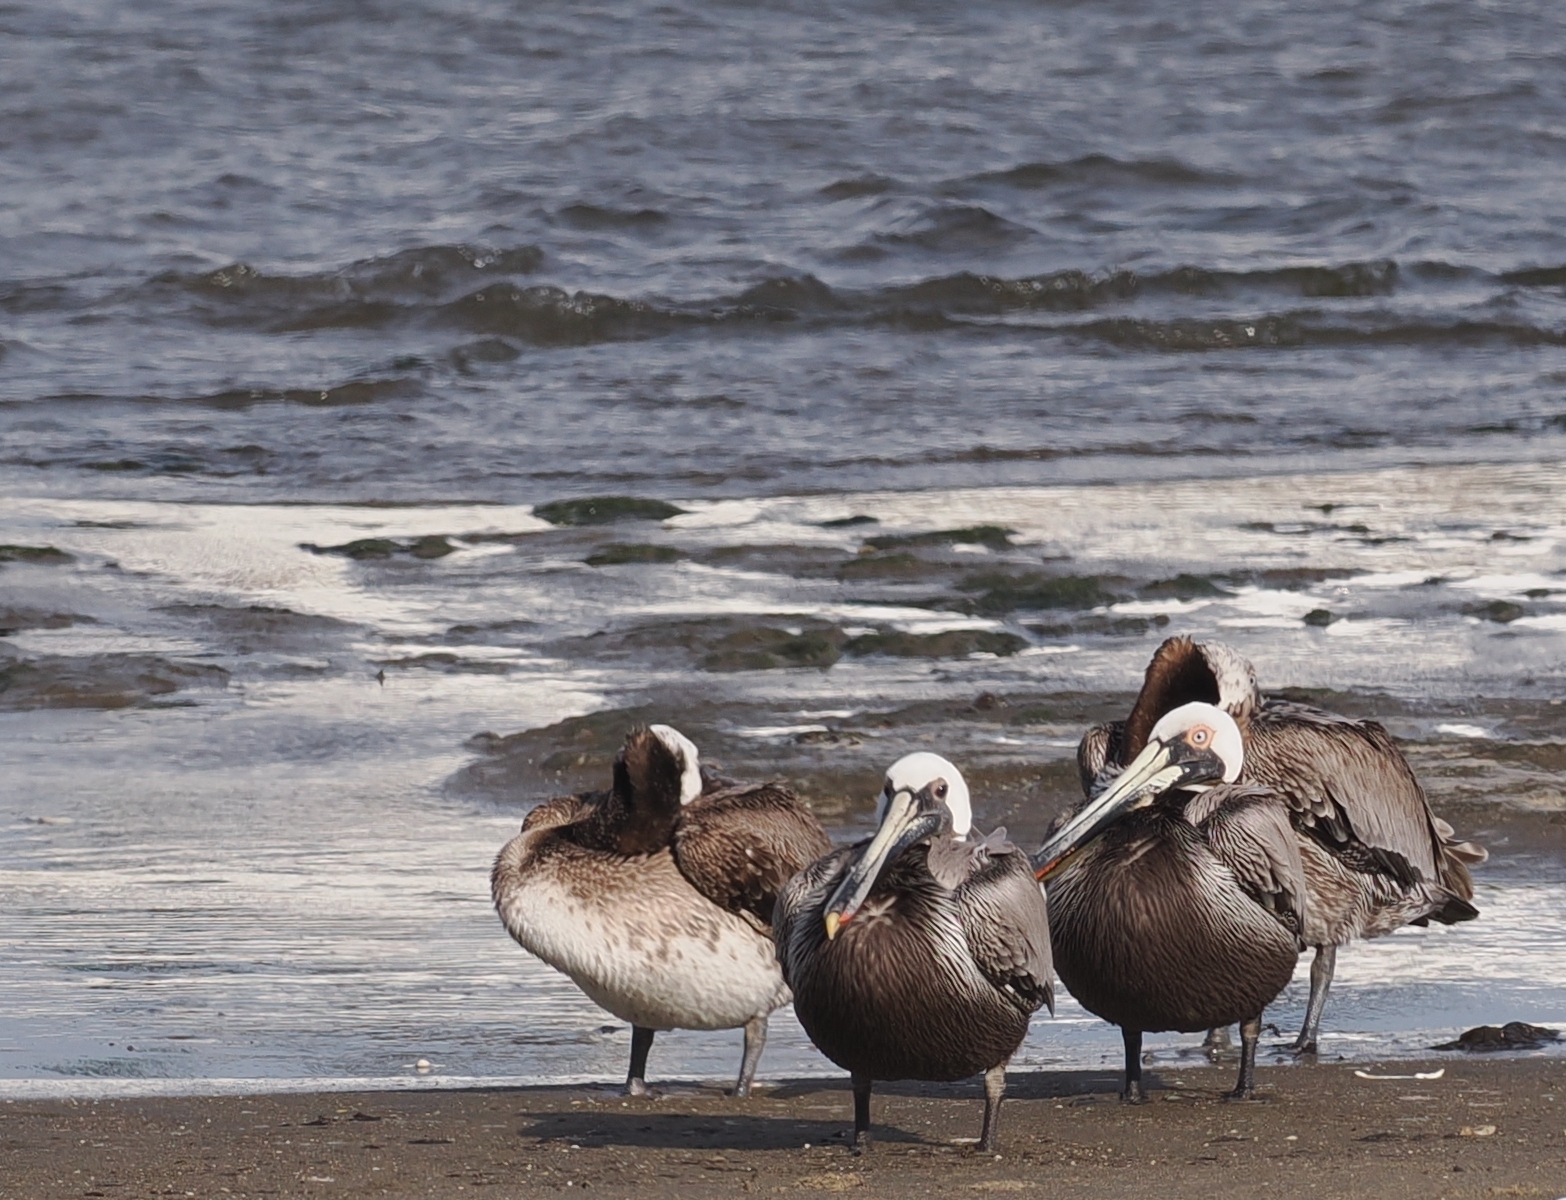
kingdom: Animalia
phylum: Chordata
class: Aves
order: Pelecaniformes
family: Pelecanidae
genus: Pelecanus
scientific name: Pelecanus occidentalis
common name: Brown pelican
